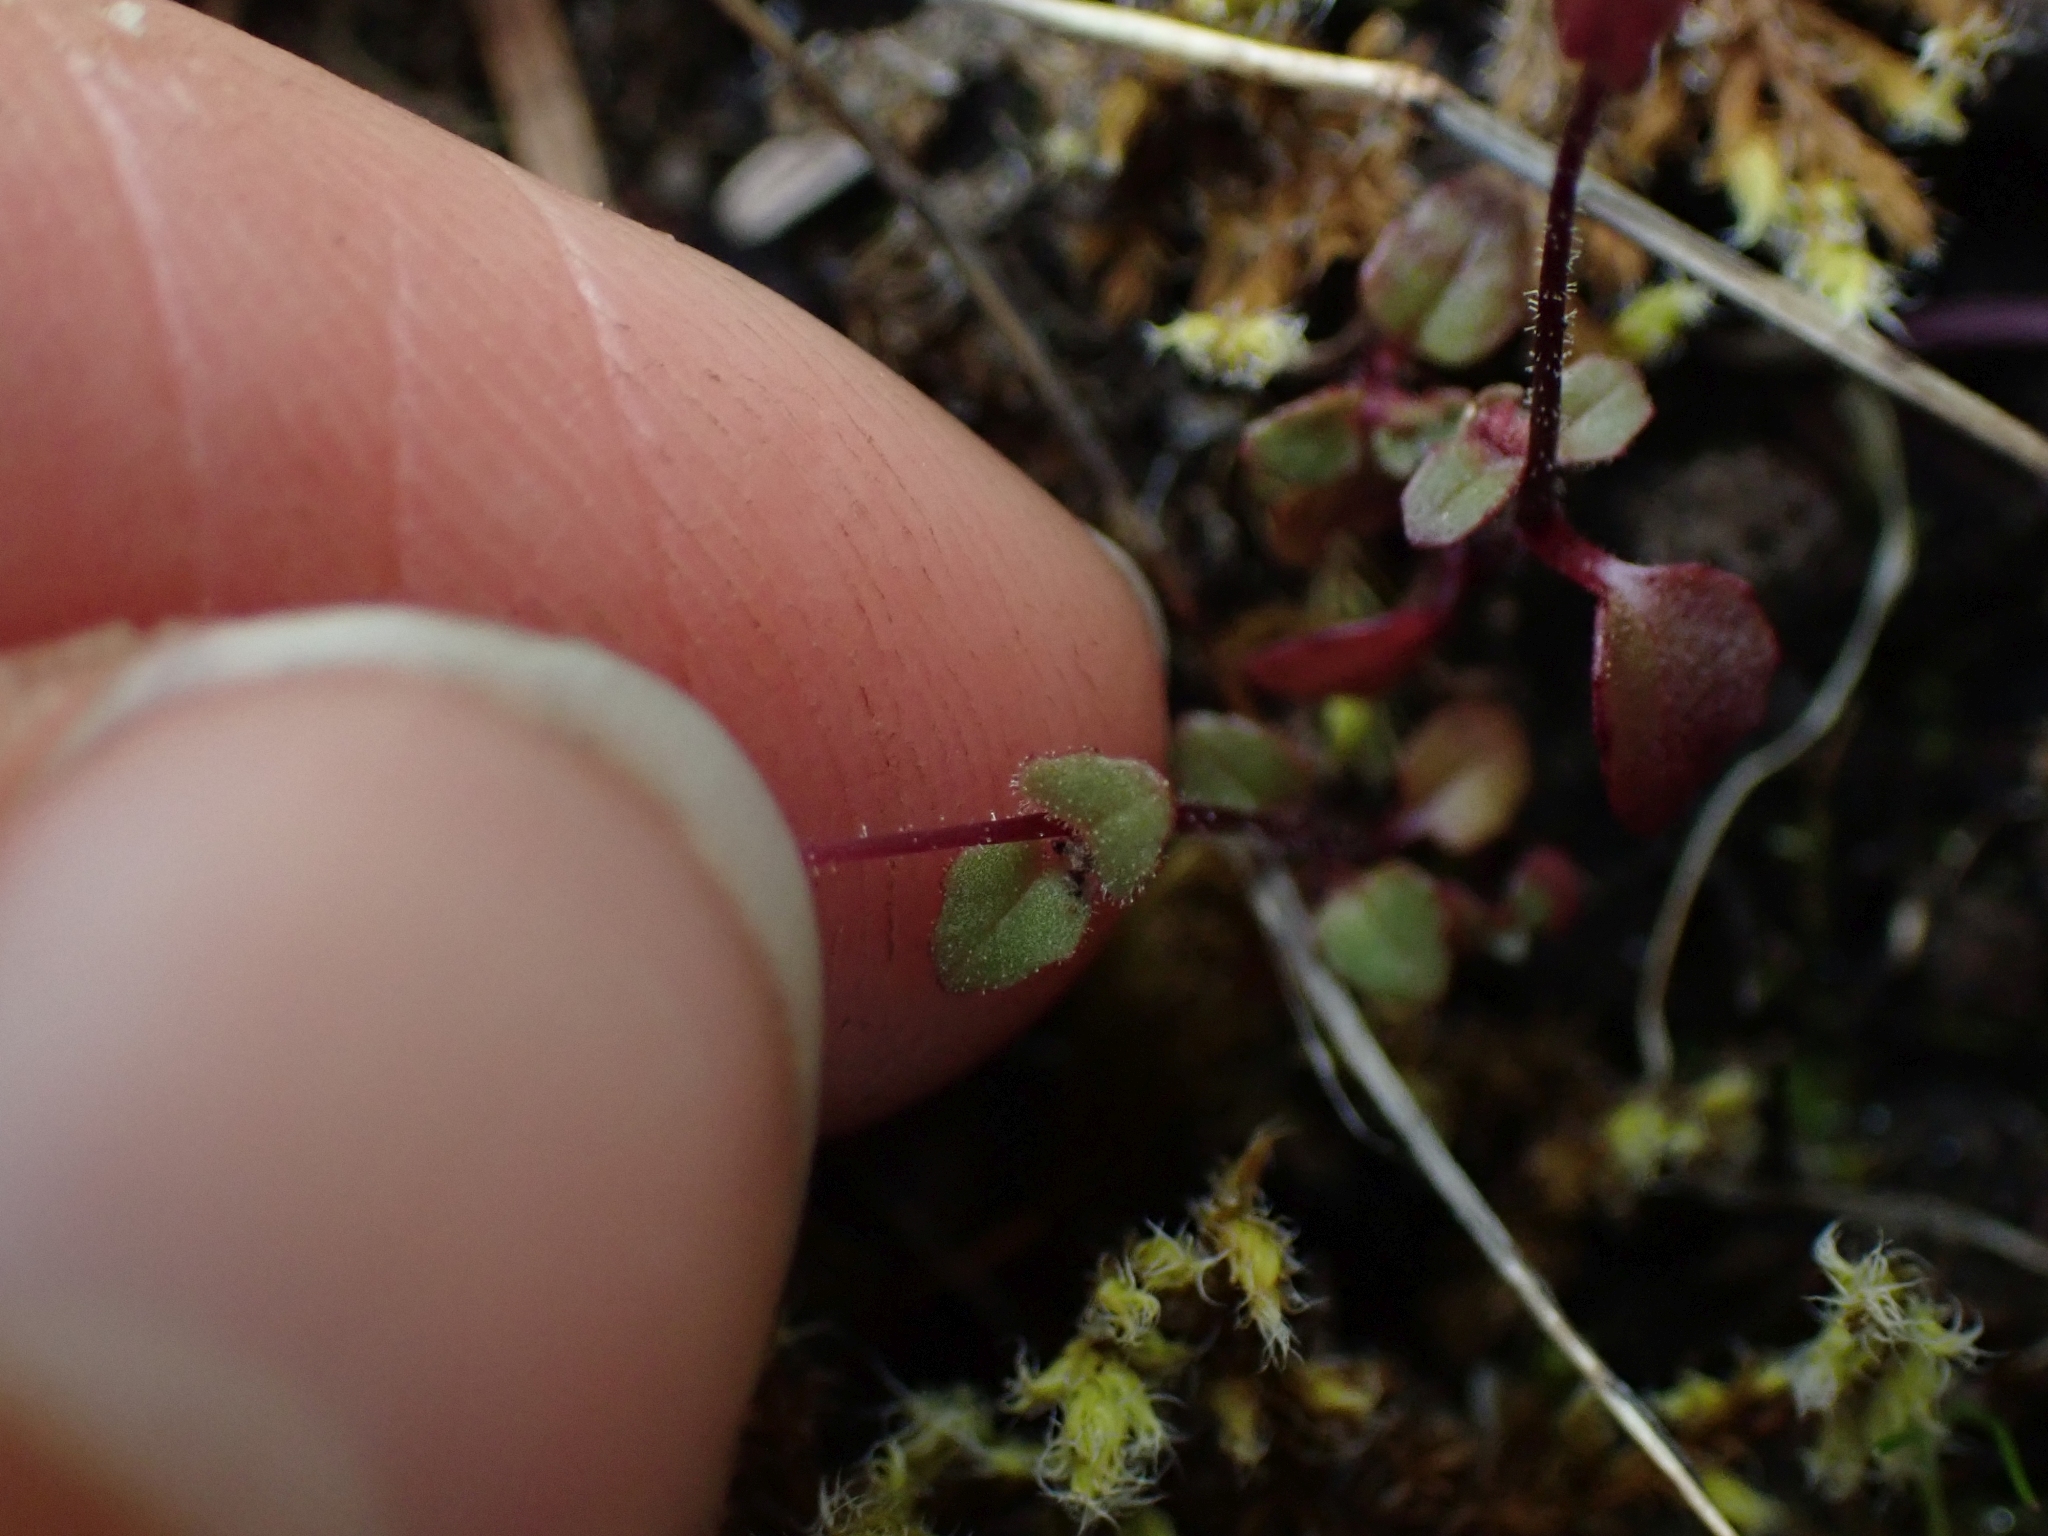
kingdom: Plantae
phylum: Tracheophyta
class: Magnoliopsida
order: Lamiales
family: Phrymaceae
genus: Erythranthe
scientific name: Erythranthe alsinoides
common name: Chickweed monkeyflower
